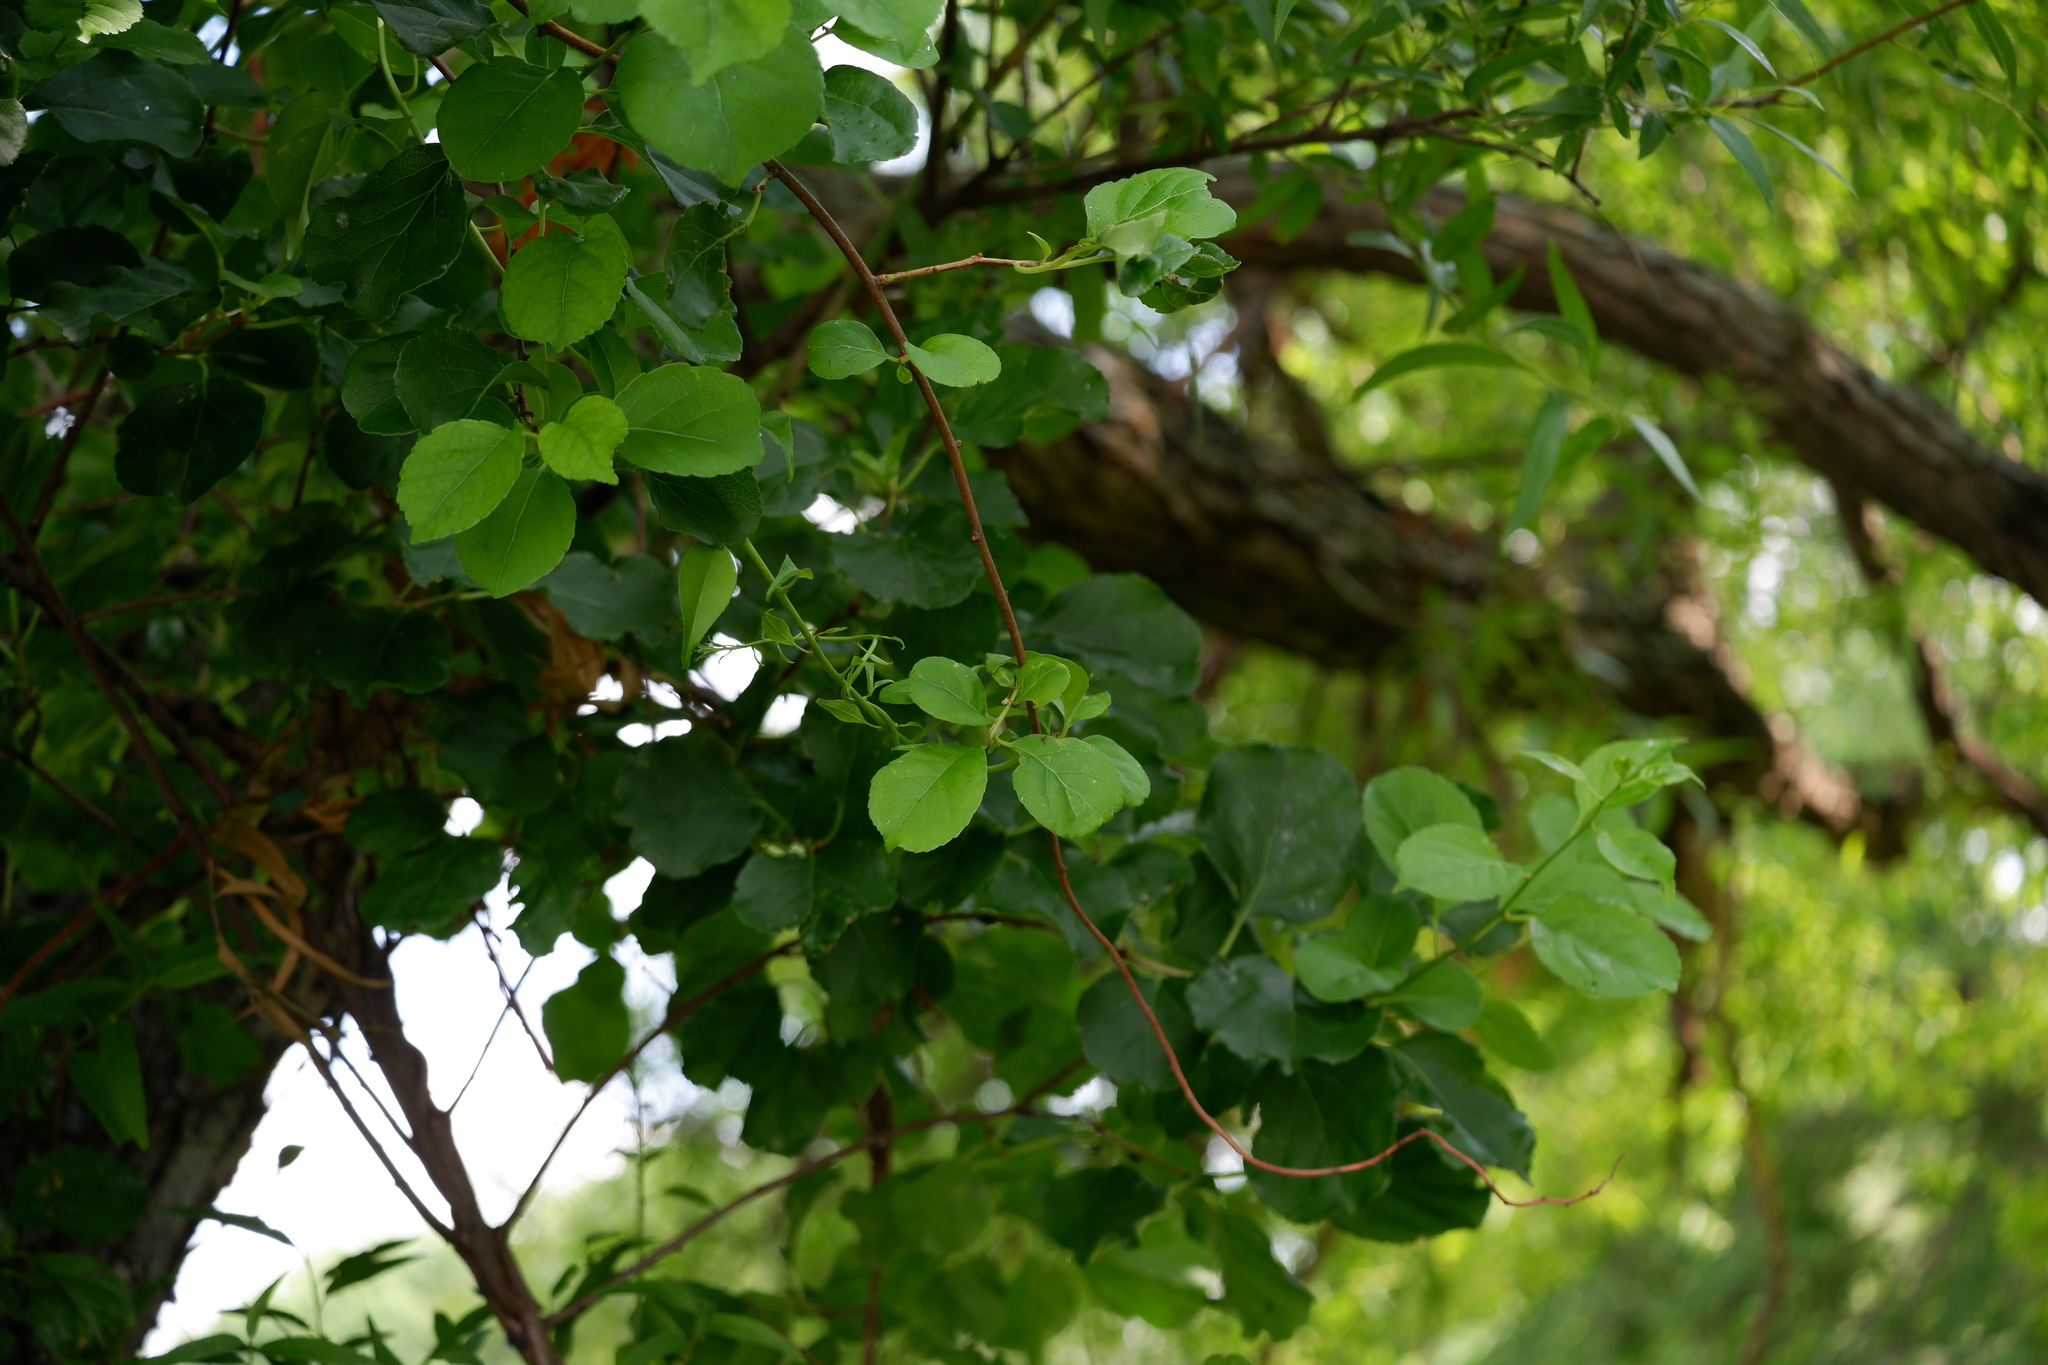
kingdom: Plantae
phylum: Tracheophyta
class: Magnoliopsida
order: Celastrales
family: Celastraceae
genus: Celastrus
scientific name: Celastrus orbiculatus
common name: Oriental bittersweet
